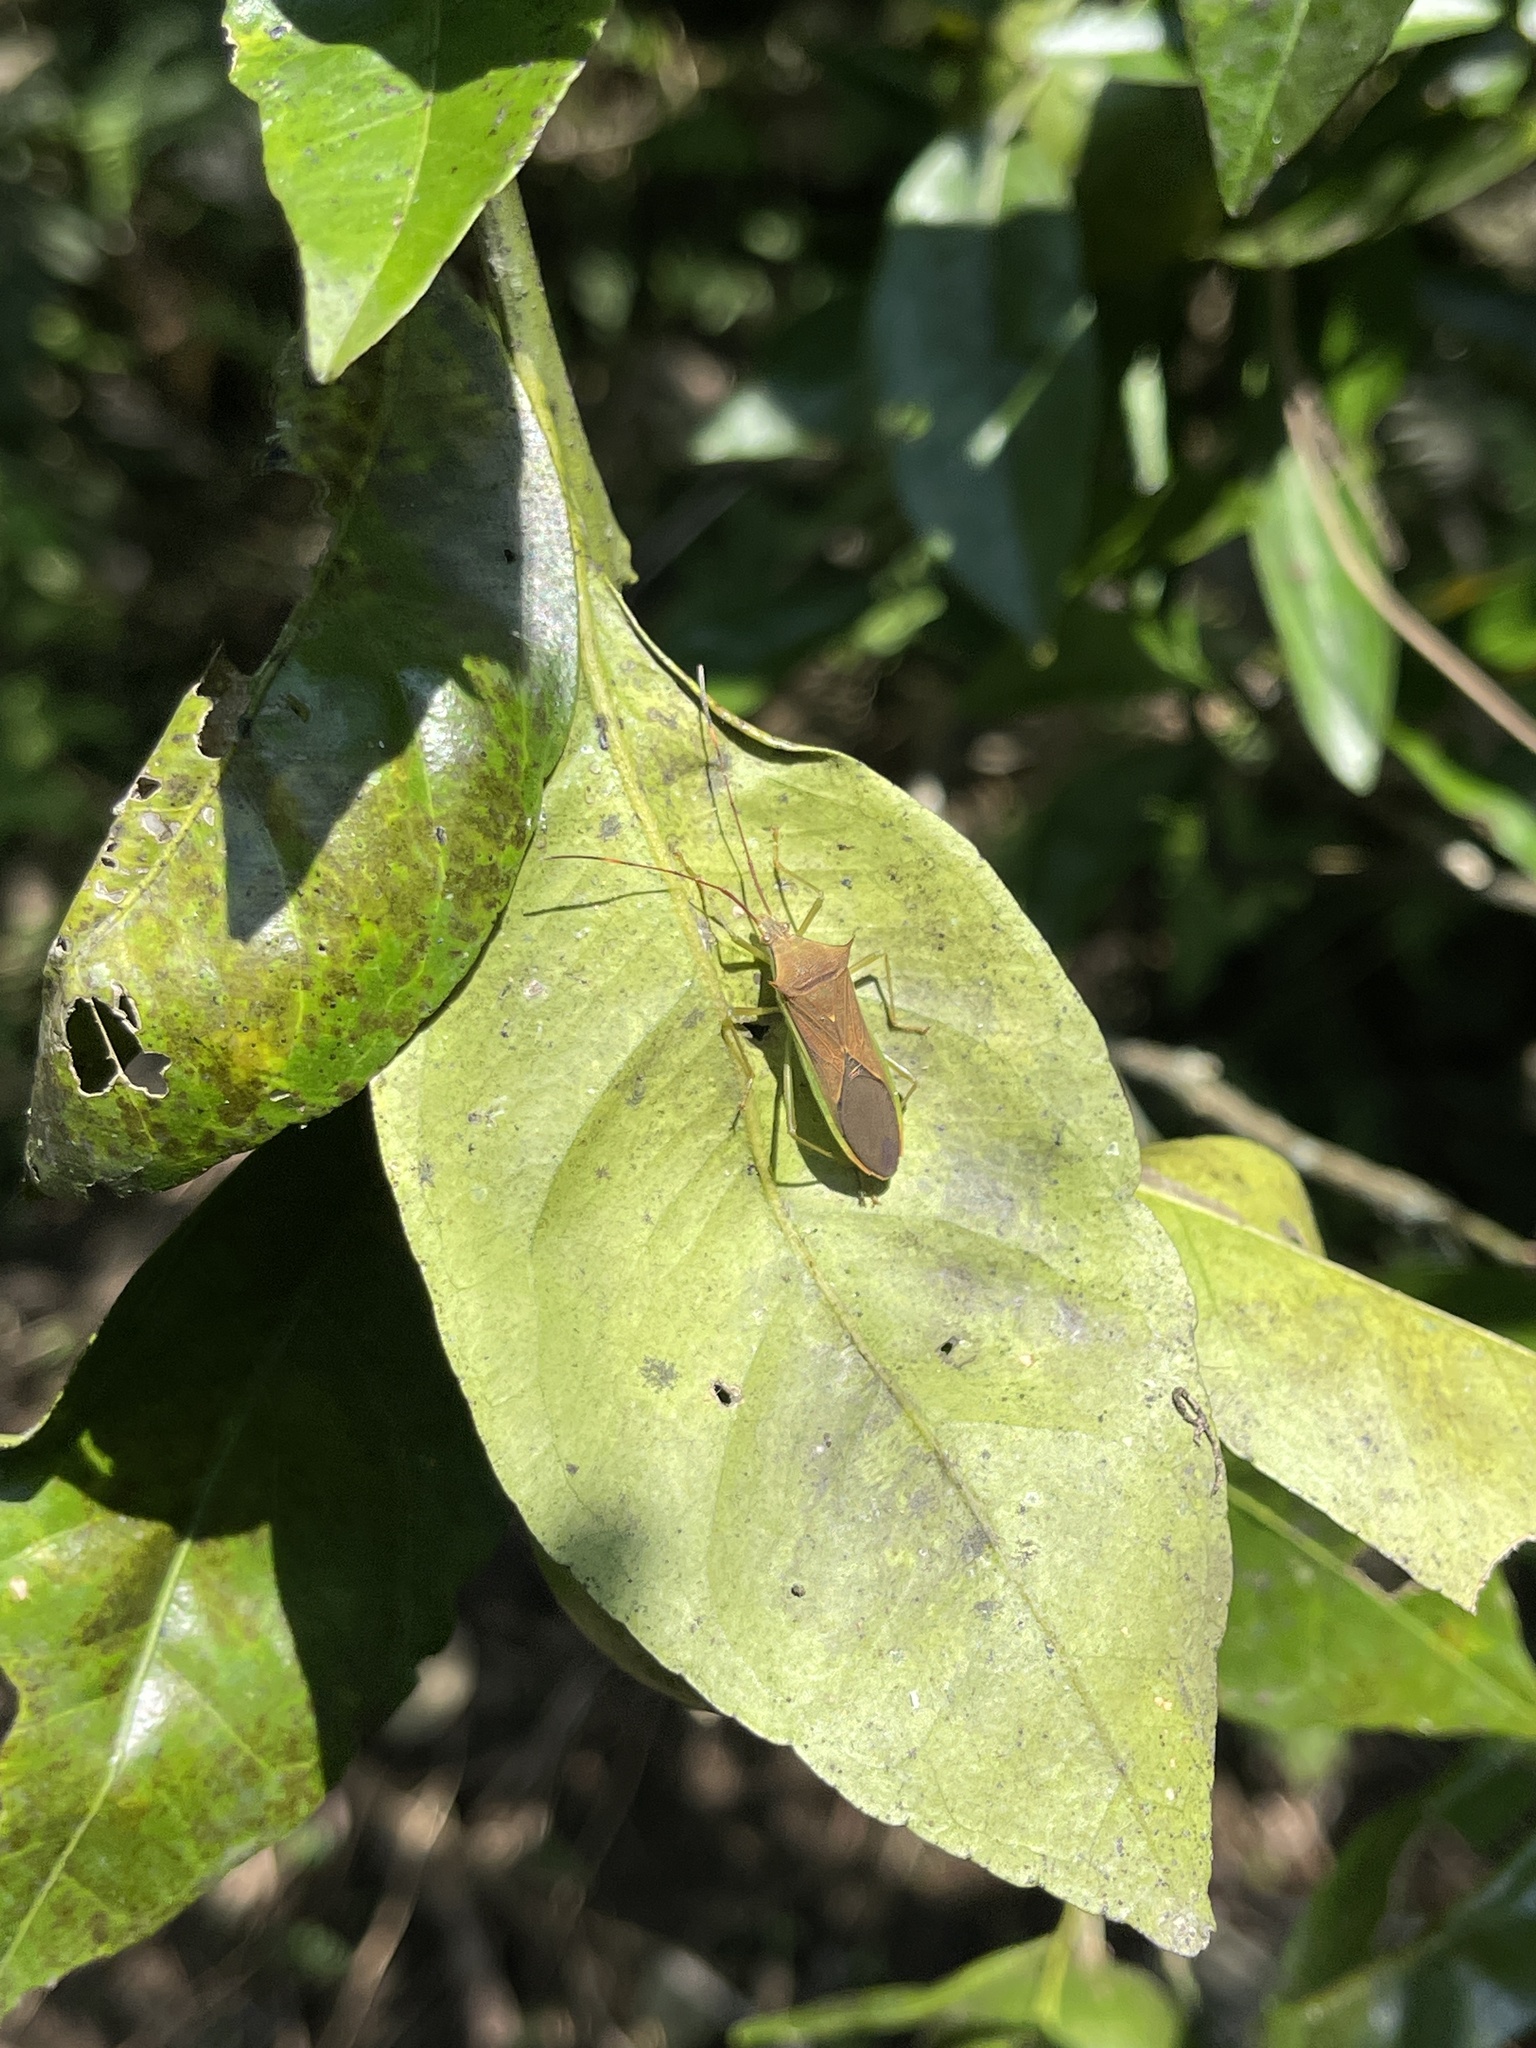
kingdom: Animalia
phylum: Arthropoda
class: Insecta
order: Hemiptera
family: Coreidae
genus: Paradasynus
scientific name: Paradasynus spinosus
